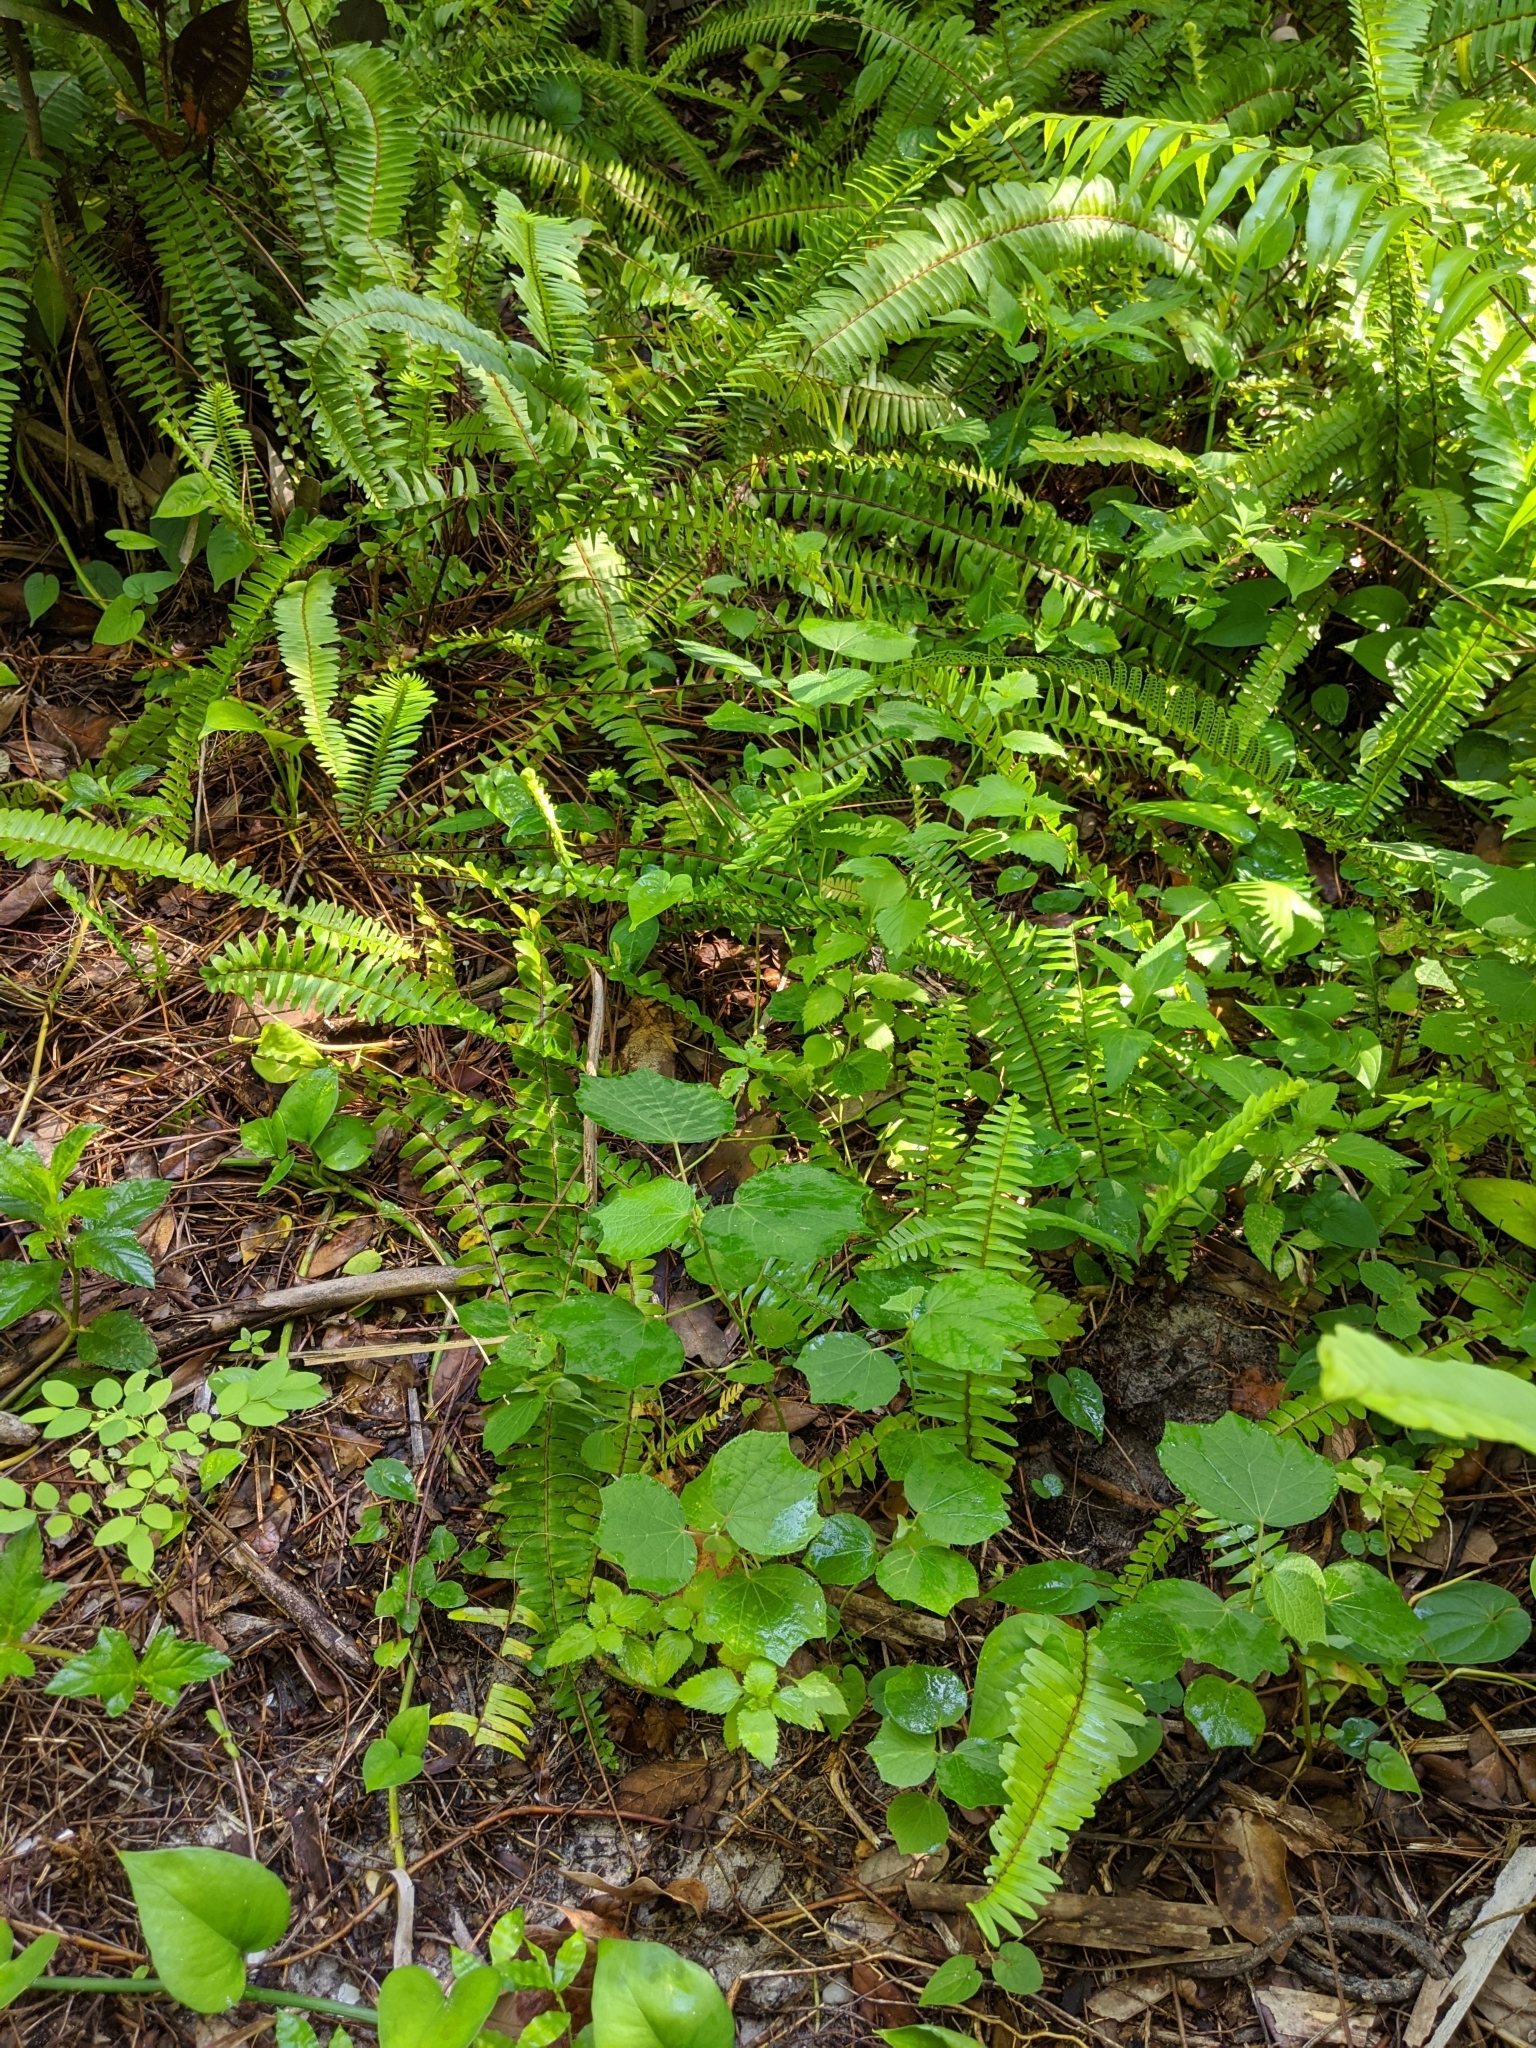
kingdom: Plantae
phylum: Tracheophyta
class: Magnoliopsida
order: Malvales
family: Malvaceae
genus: Urena
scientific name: Urena lobata
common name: Caesarweed
